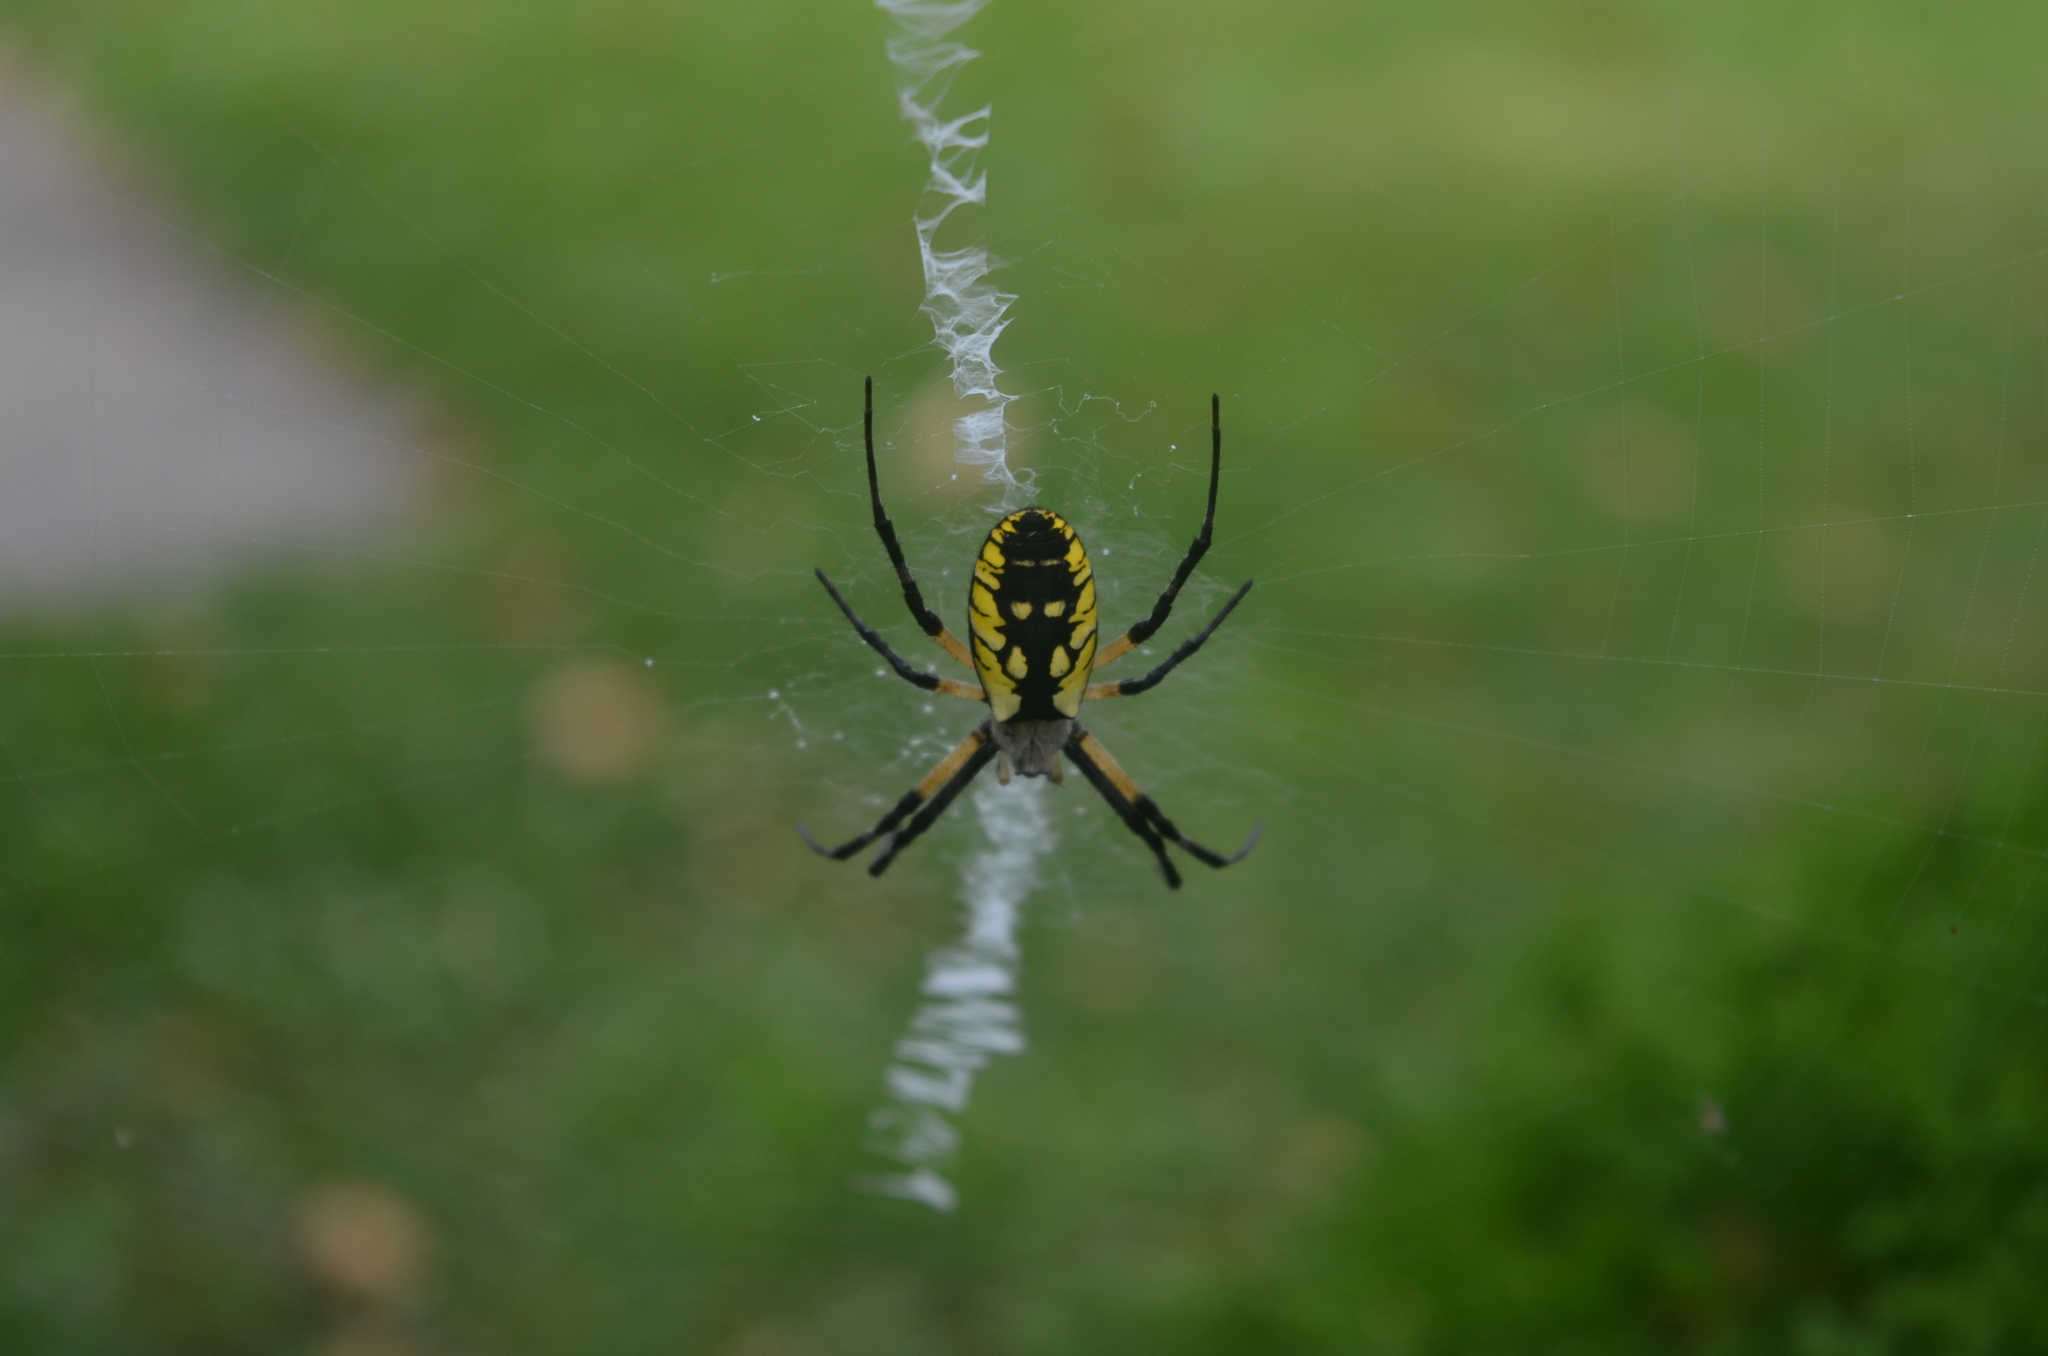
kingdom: Animalia
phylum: Arthropoda
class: Arachnida
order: Araneae
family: Araneidae
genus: Argiope
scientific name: Argiope aurantia
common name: Orb weavers
